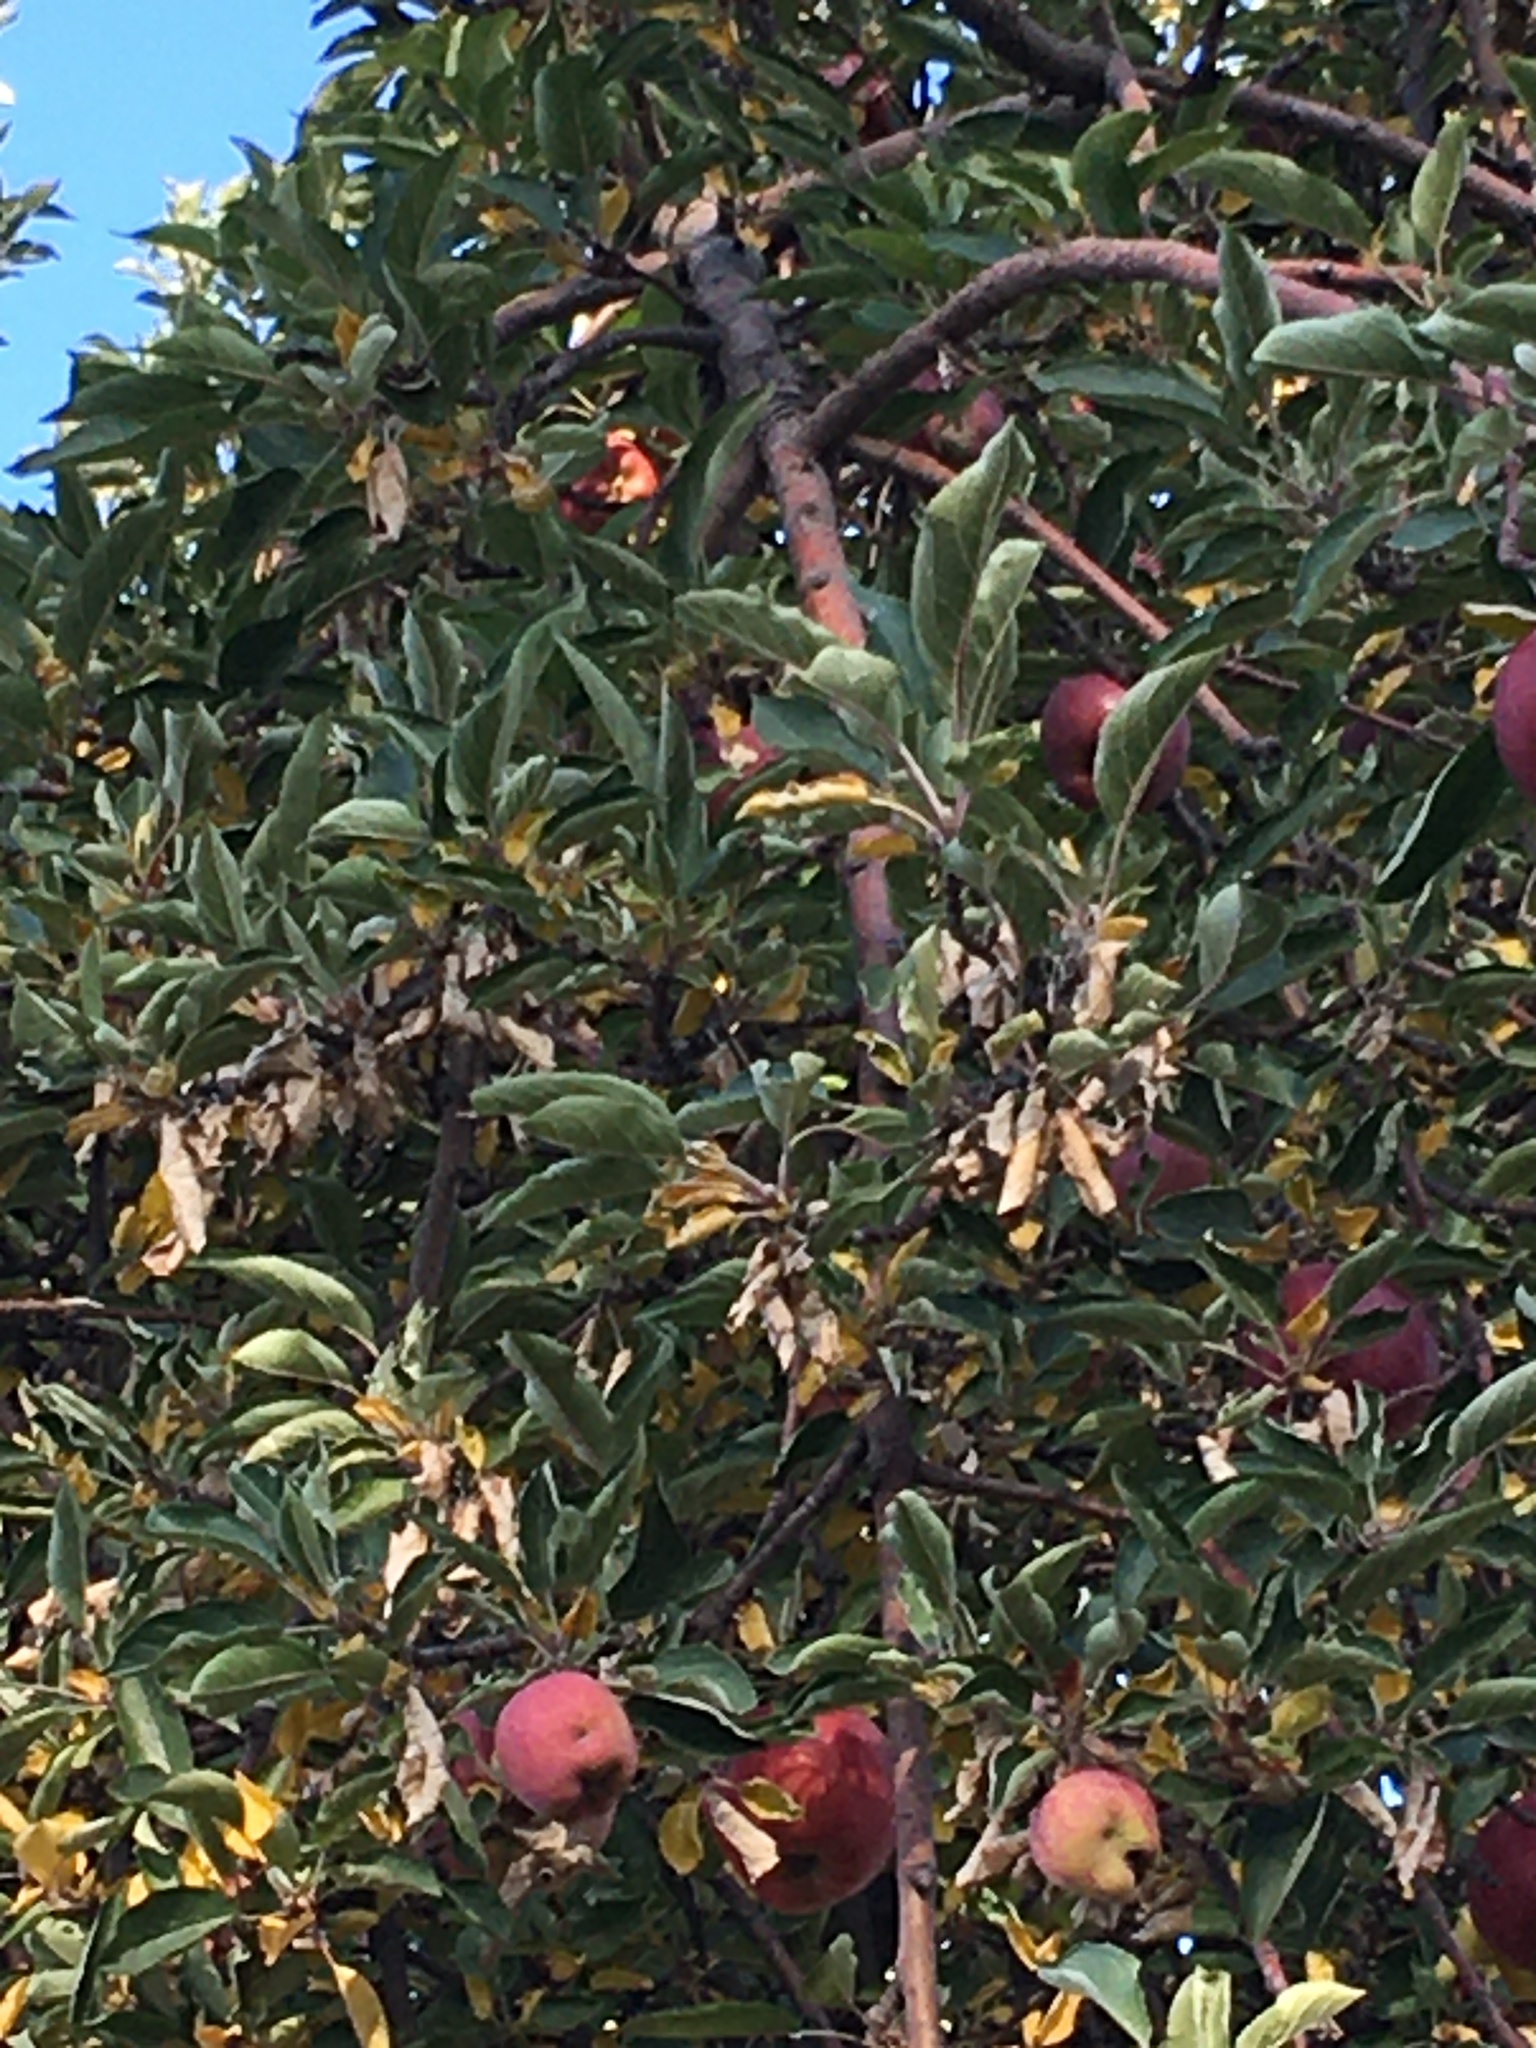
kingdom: Plantae
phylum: Tracheophyta
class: Magnoliopsida
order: Rosales
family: Rosaceae
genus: Malus
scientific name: Malus domestica
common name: Apple
